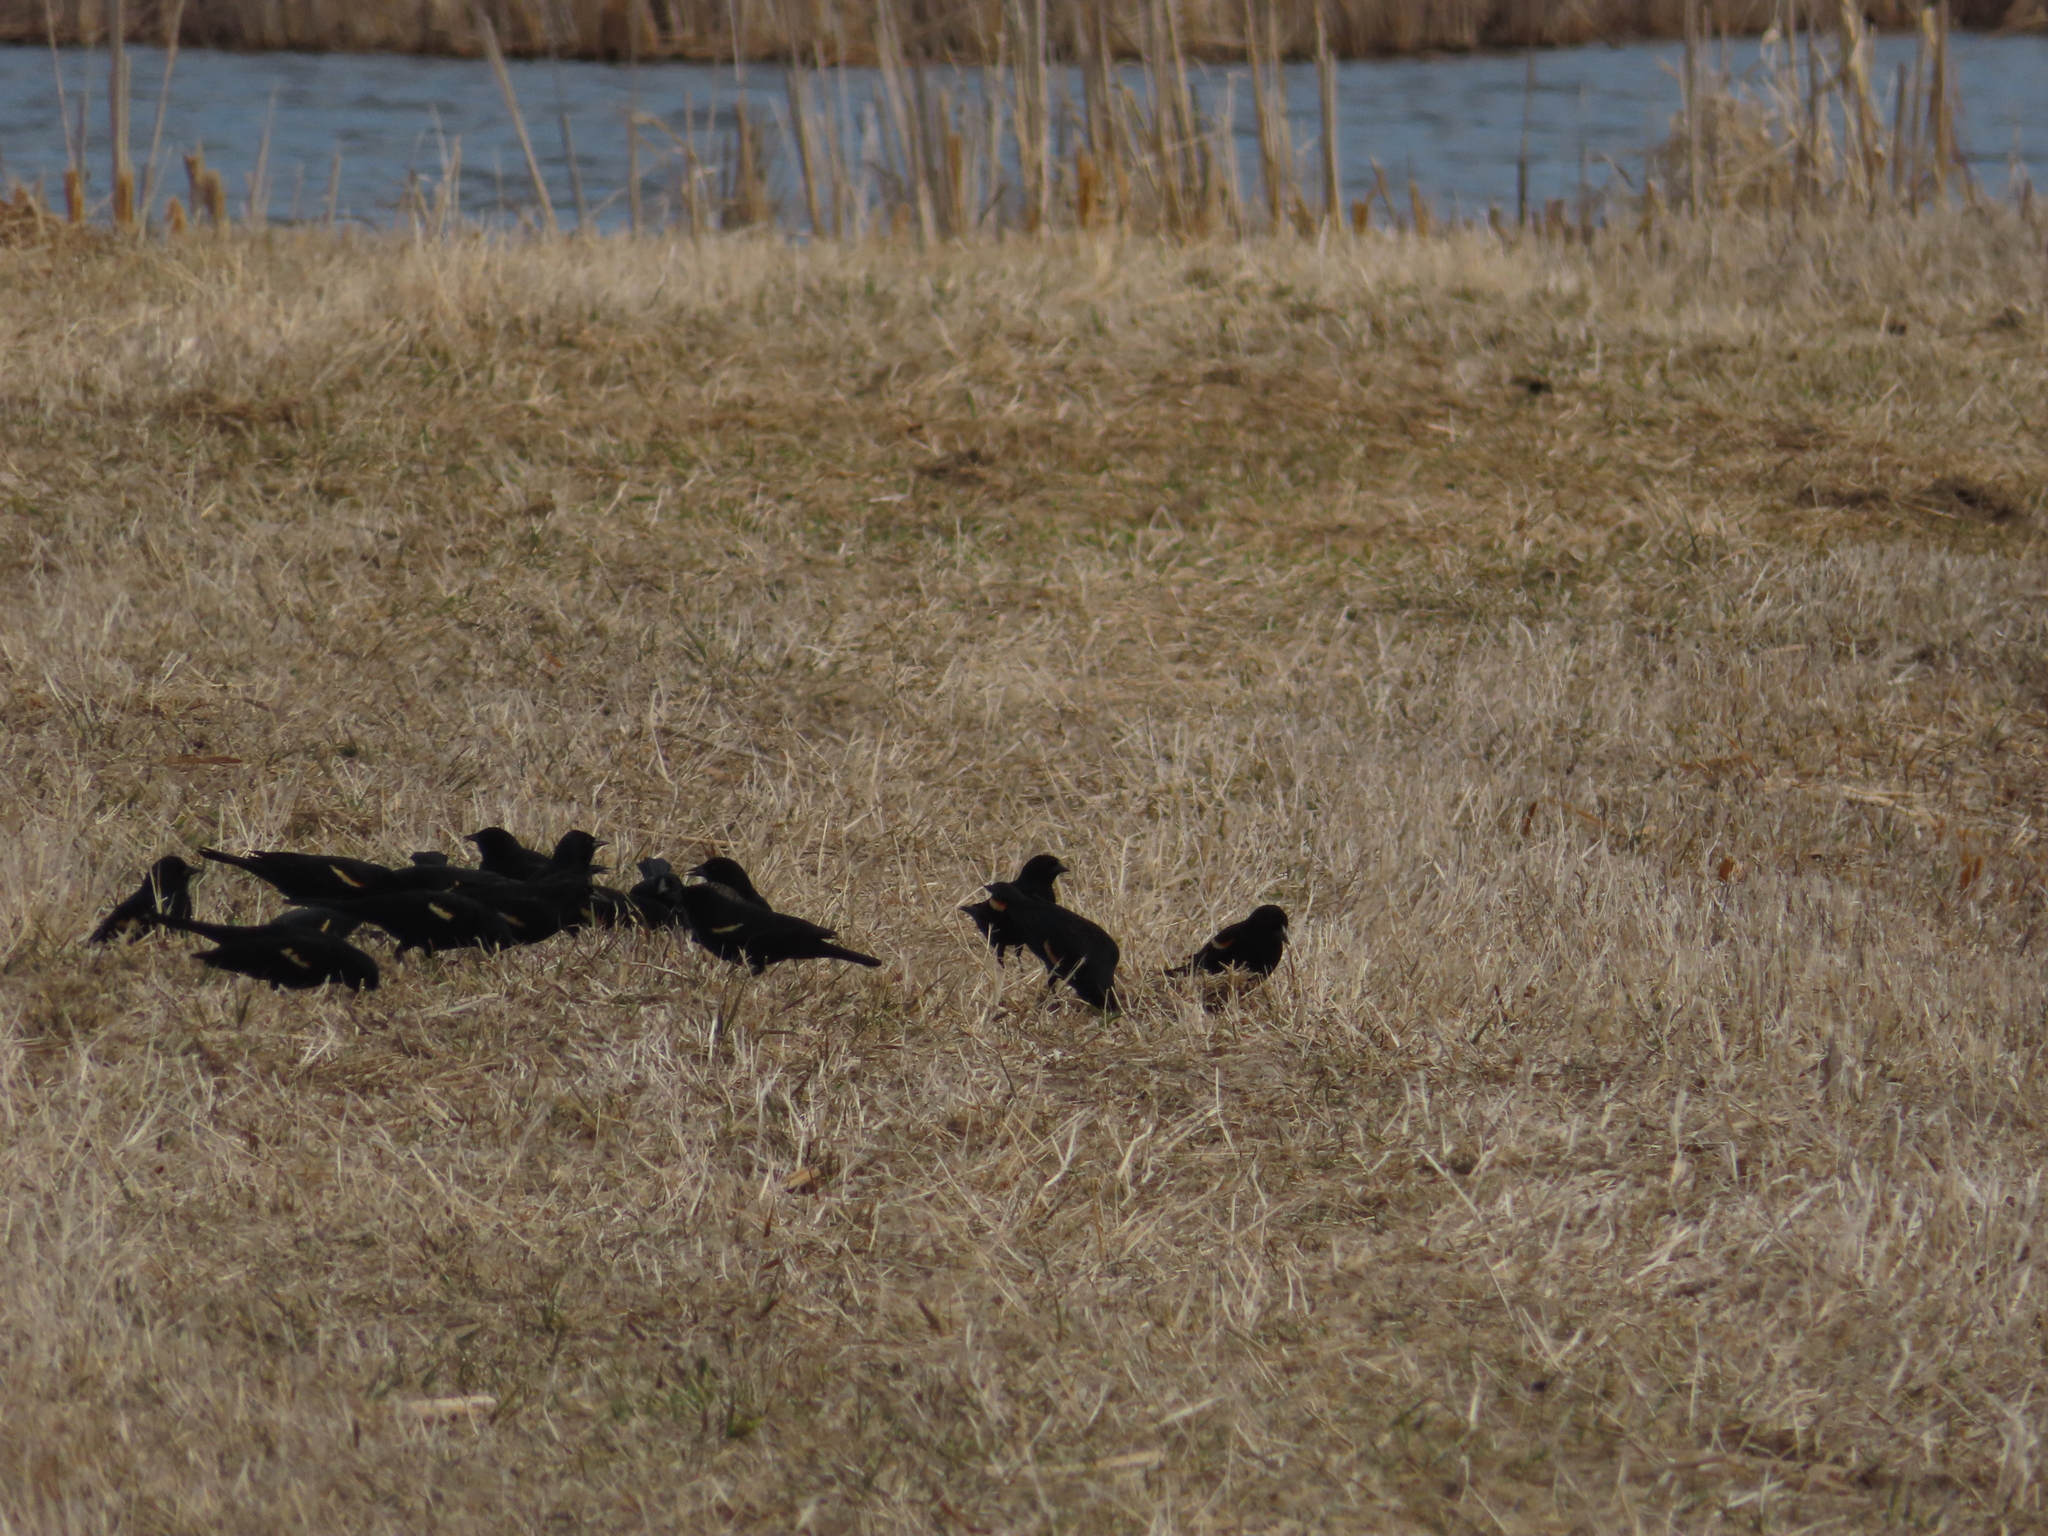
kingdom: Animalia
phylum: Chordata
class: Aves
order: Passeriformes
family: Icteridae
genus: Agelaius
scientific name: Agelaius phoeniceus
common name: Red-winged blackbird
